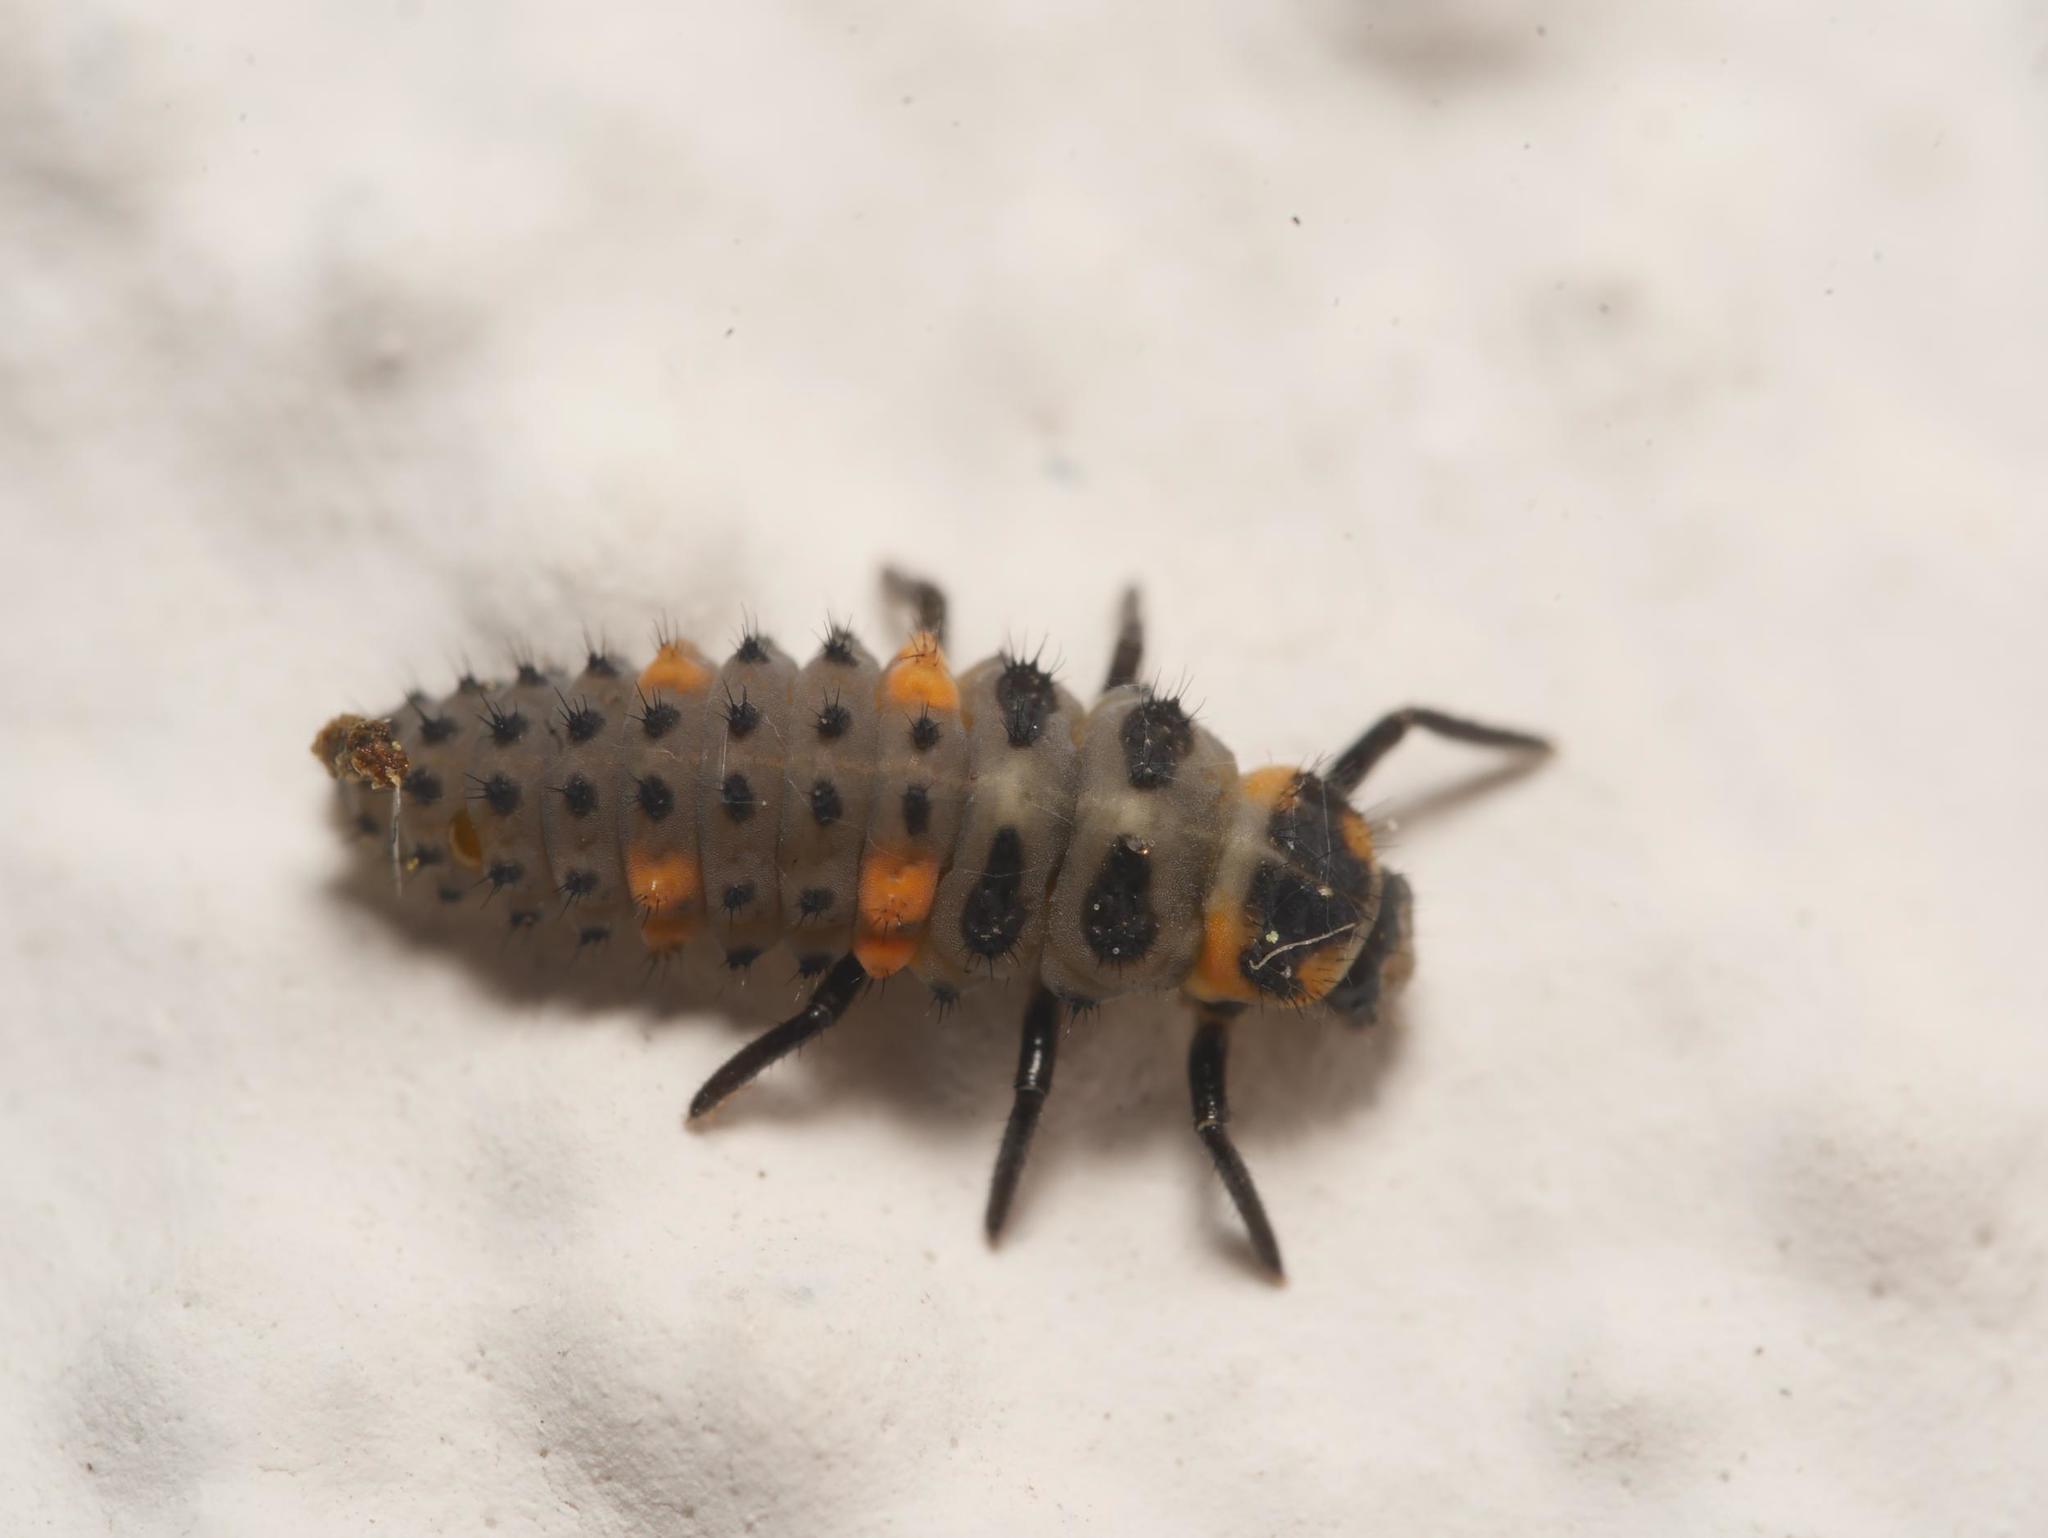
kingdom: Animalia
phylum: Arthropoda
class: Insecta
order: Coleoptera
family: Coccinellidae
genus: Coccinella
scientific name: Coccinella septempunctata
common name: Sevenspotted lady beetle
